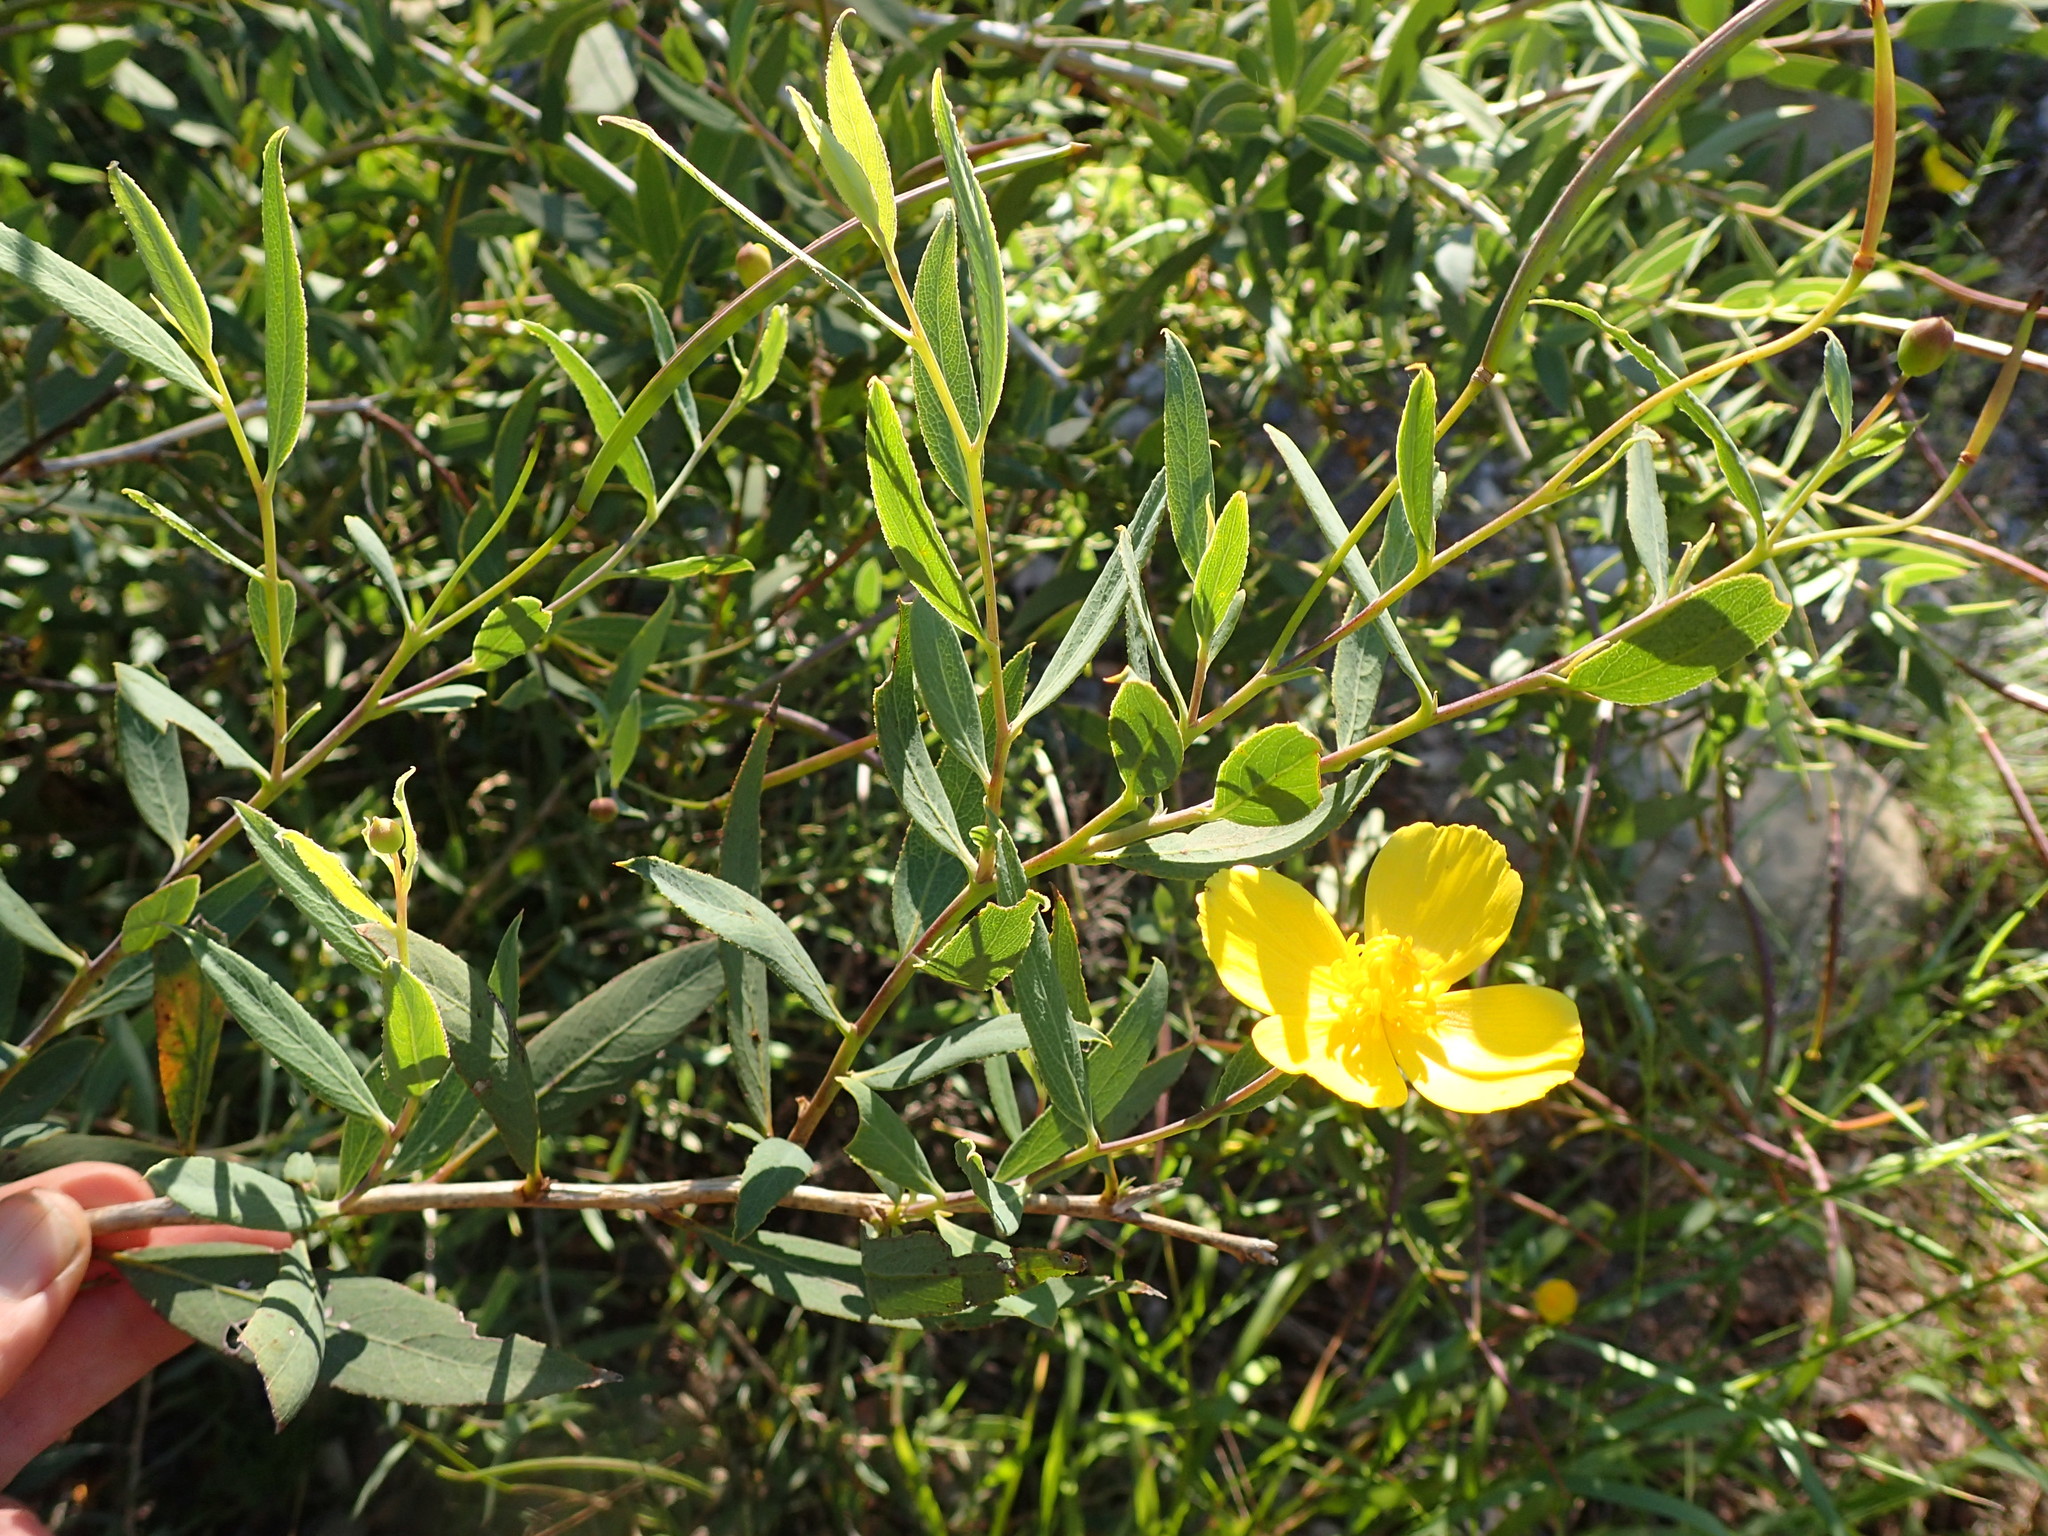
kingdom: Plantae
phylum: Tracheophyta
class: Magnoliopsida
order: Ranunculales
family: Papaveraceae
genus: Dendromecon
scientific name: Dendromecon rigida
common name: Tree poppy
